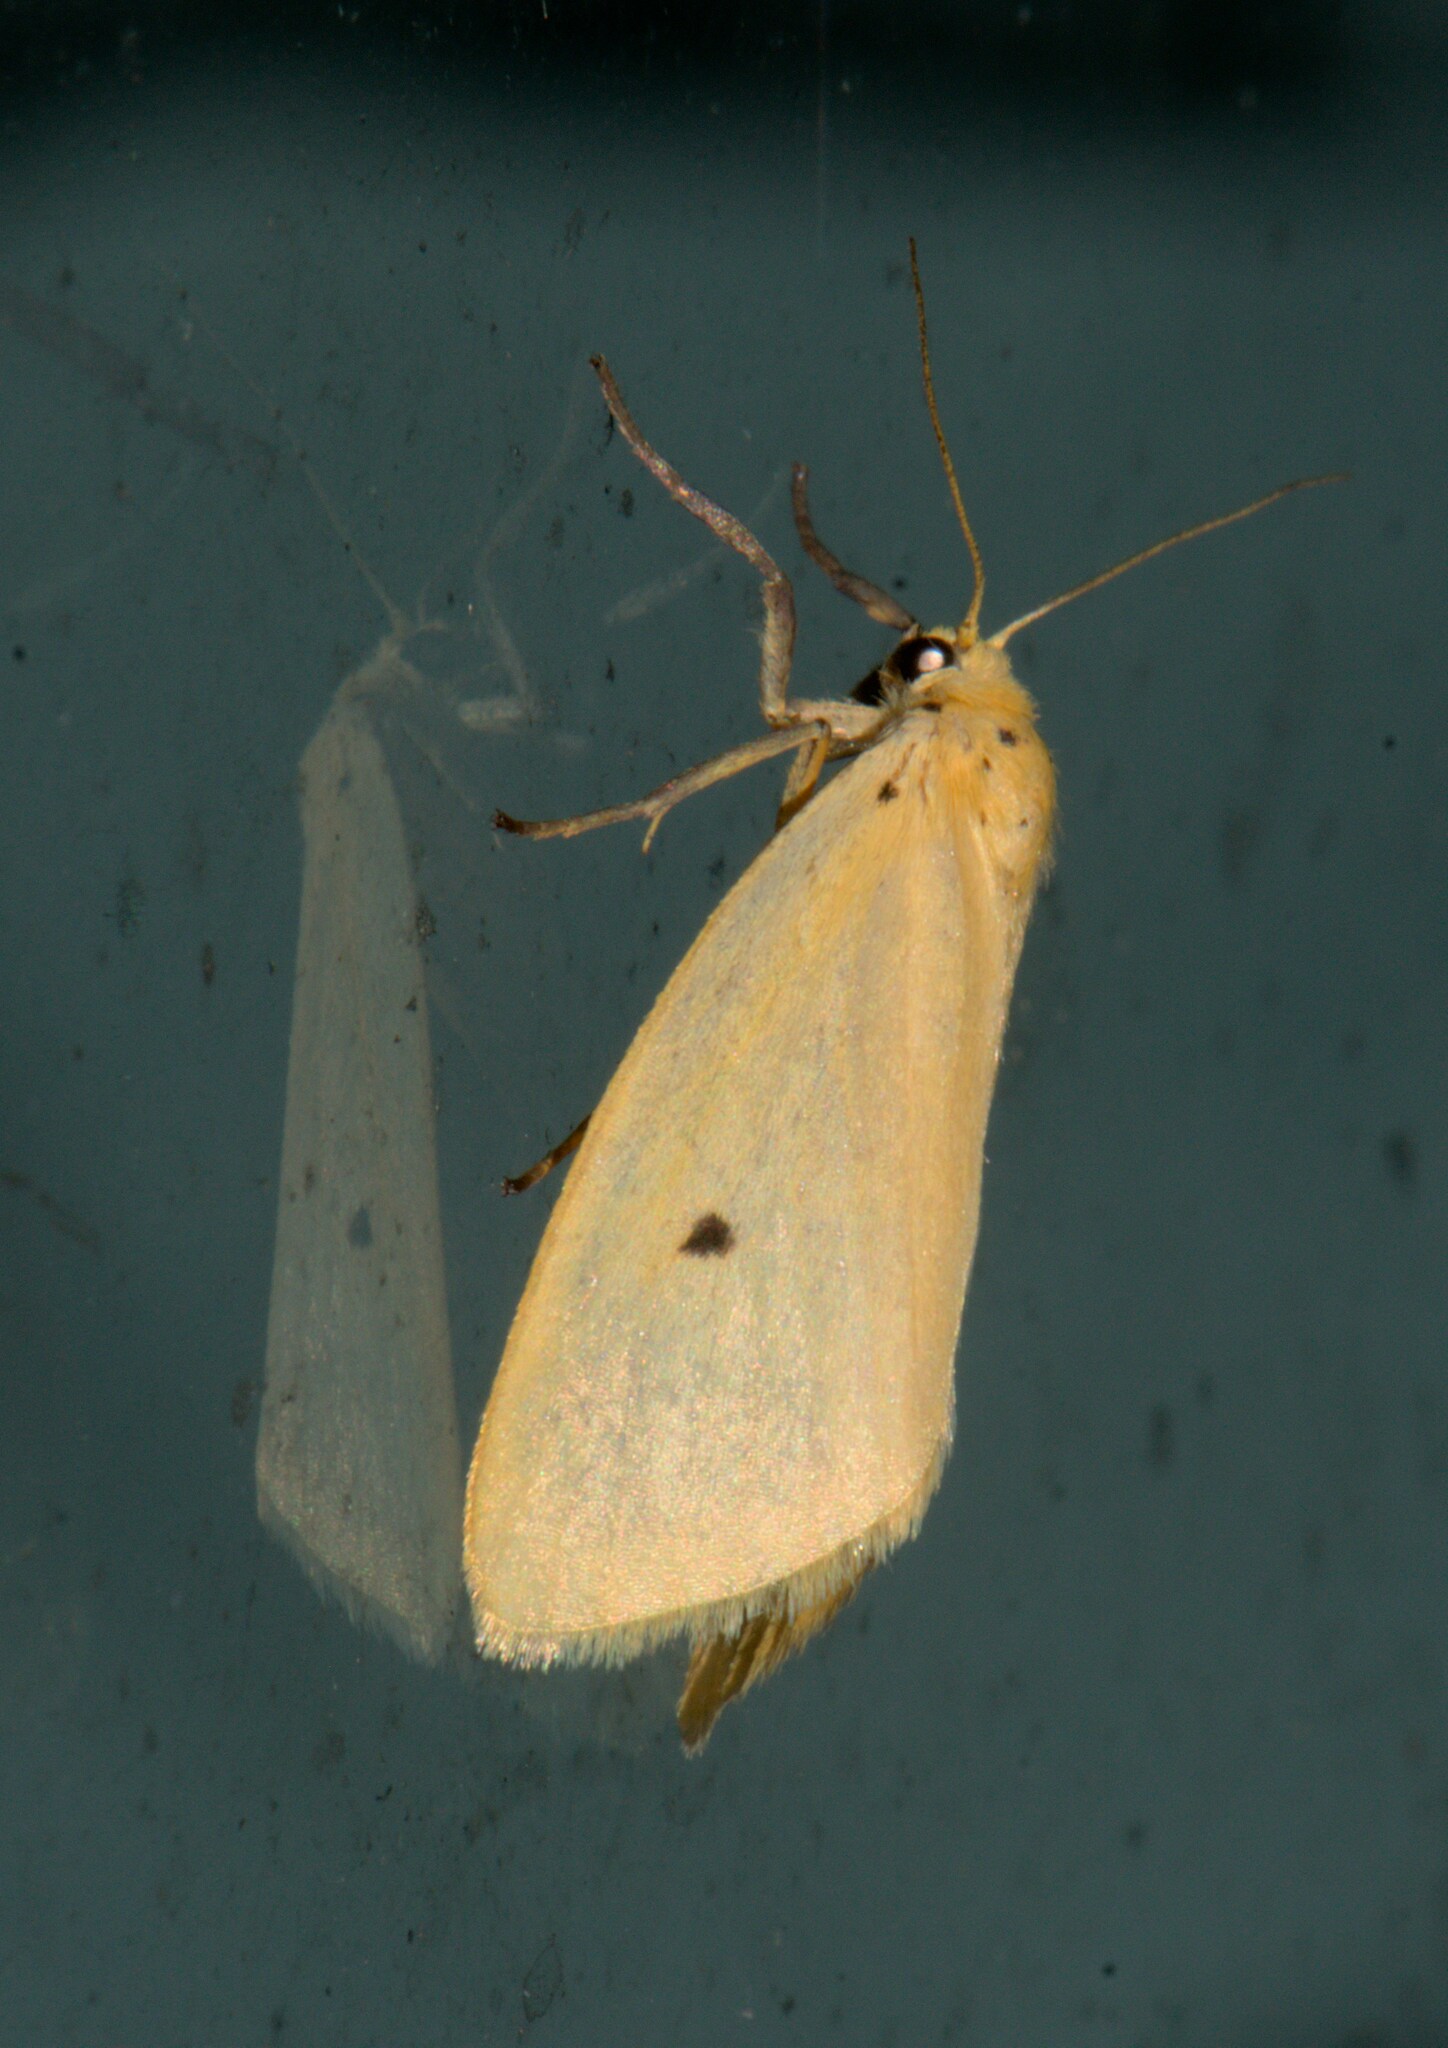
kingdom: Animalia
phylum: Arthropoda
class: Insecta
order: Lepidoptera
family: Erebidae
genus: Miltochrista
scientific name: Miltochrista calamaria
